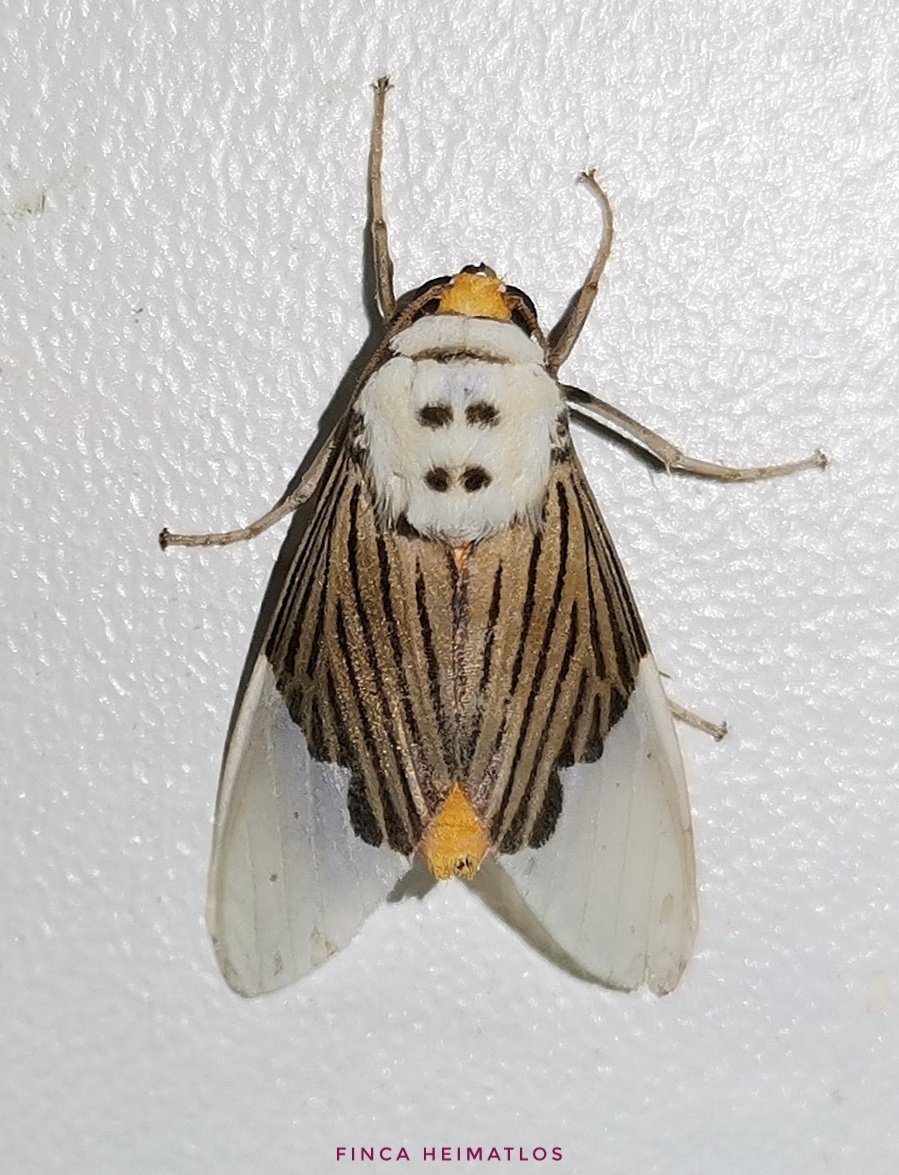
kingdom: Animalia
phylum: Arthropoda
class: Insecta
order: Lepidoptera
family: Erebidae
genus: Ischnognatha
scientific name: Ischnognatha semiopalina
